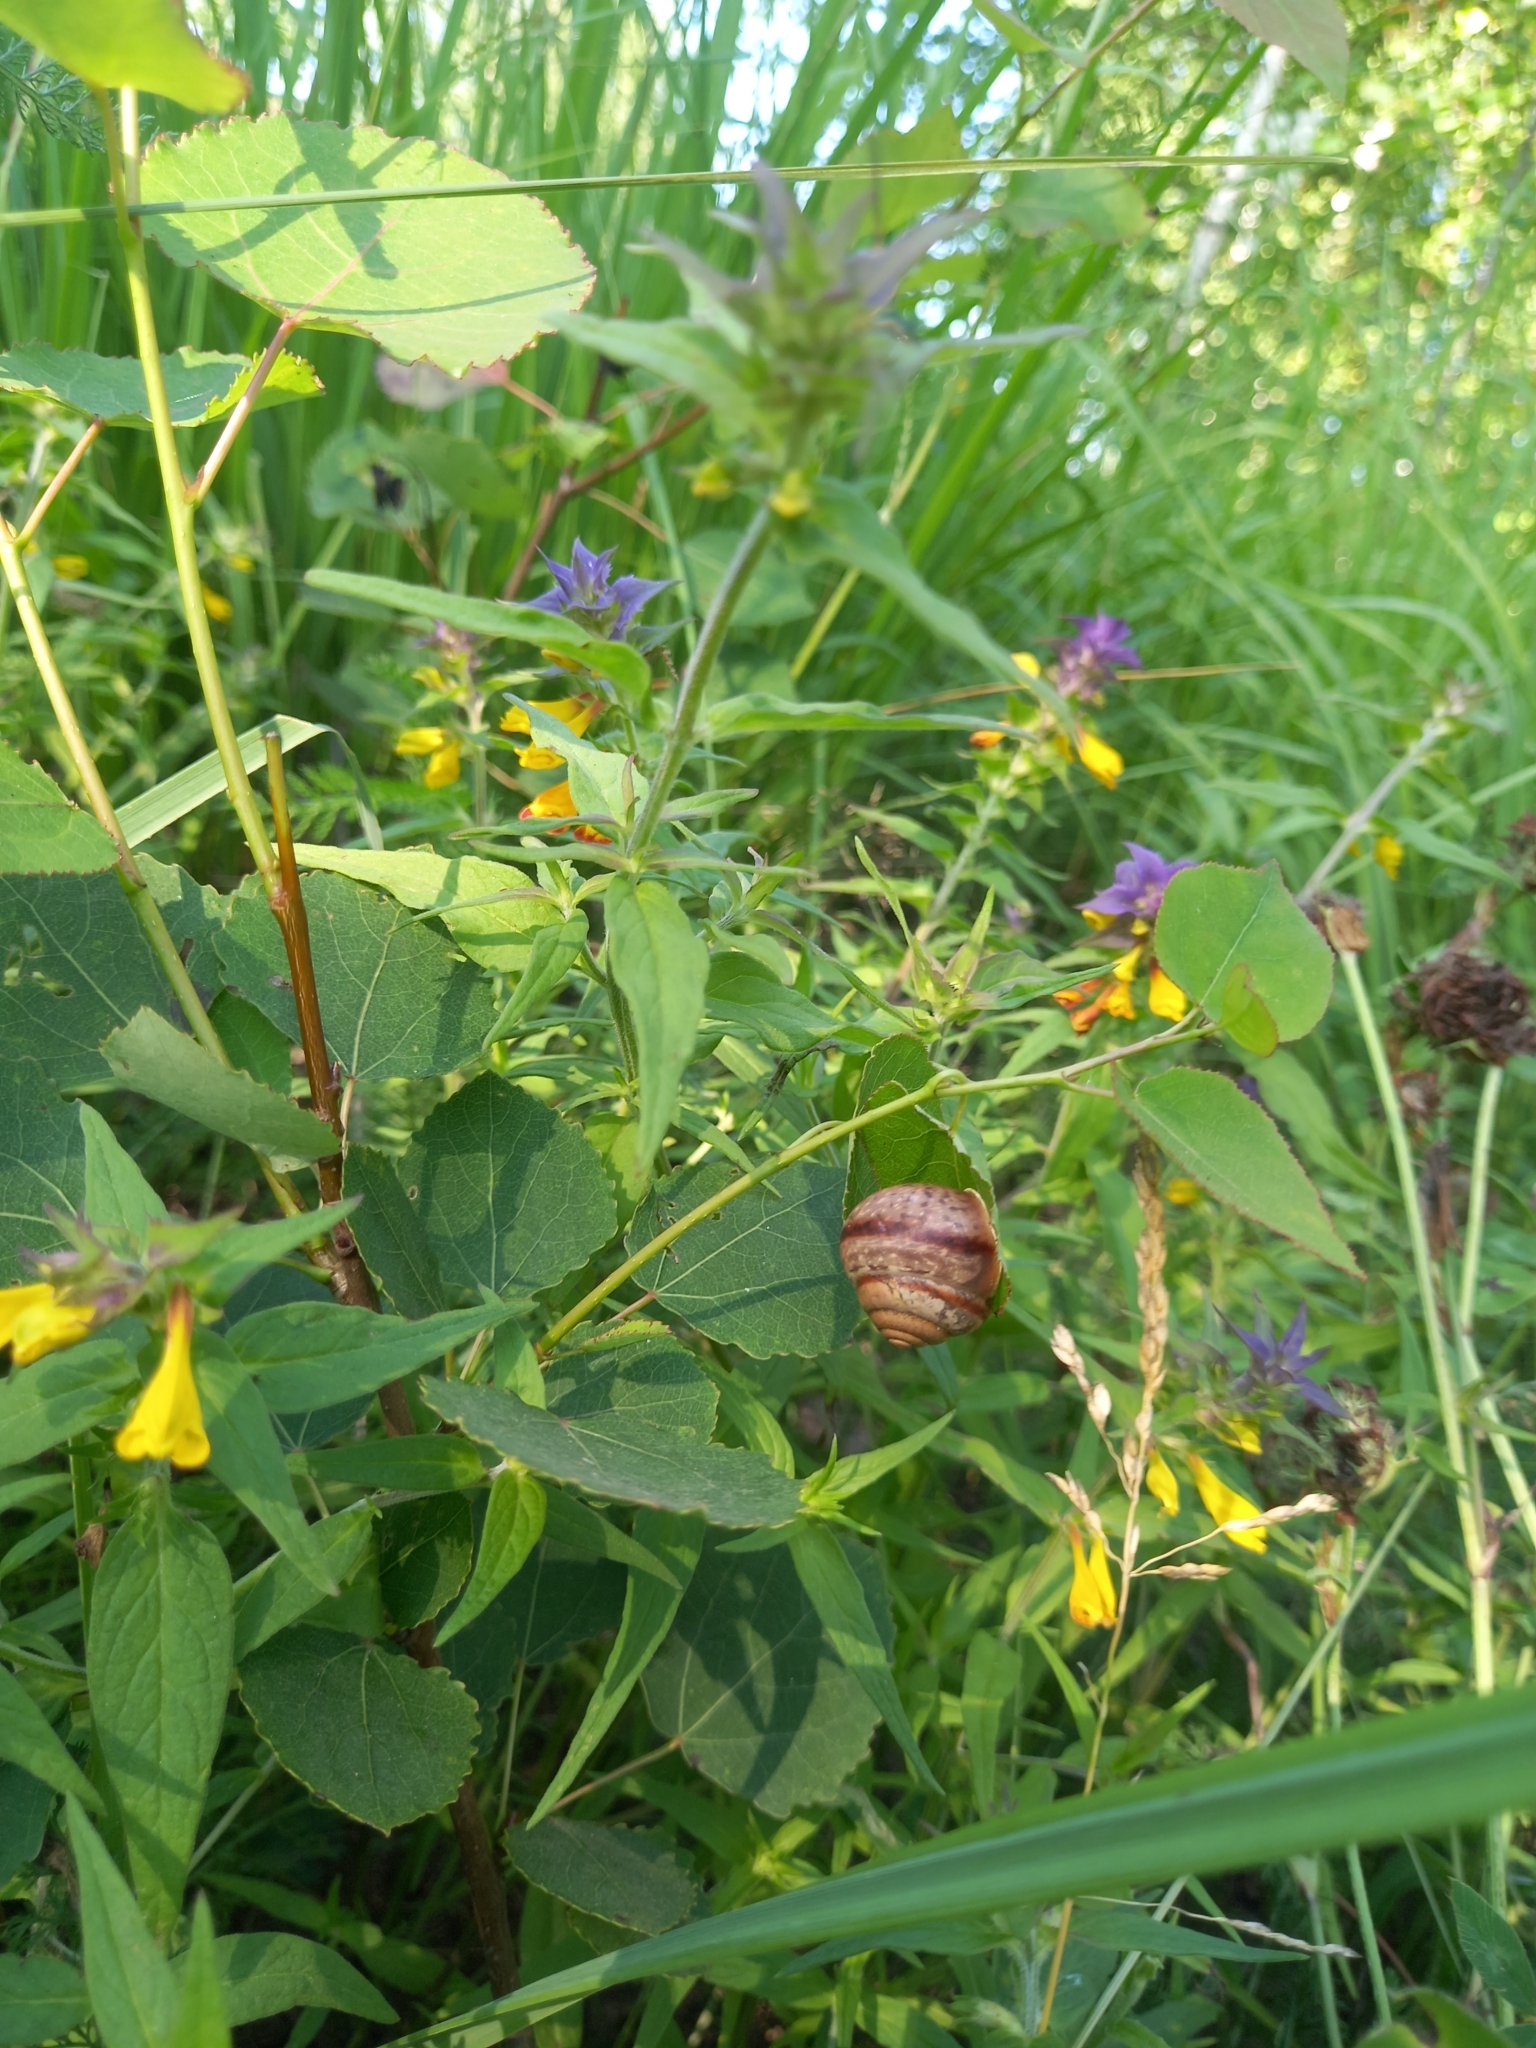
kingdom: Animalia
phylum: Mollusca
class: Gastropoda
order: Stylommatophora
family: Camaenidae
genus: Fruticicola
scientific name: Fruticicola fruticum
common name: Bush snail
